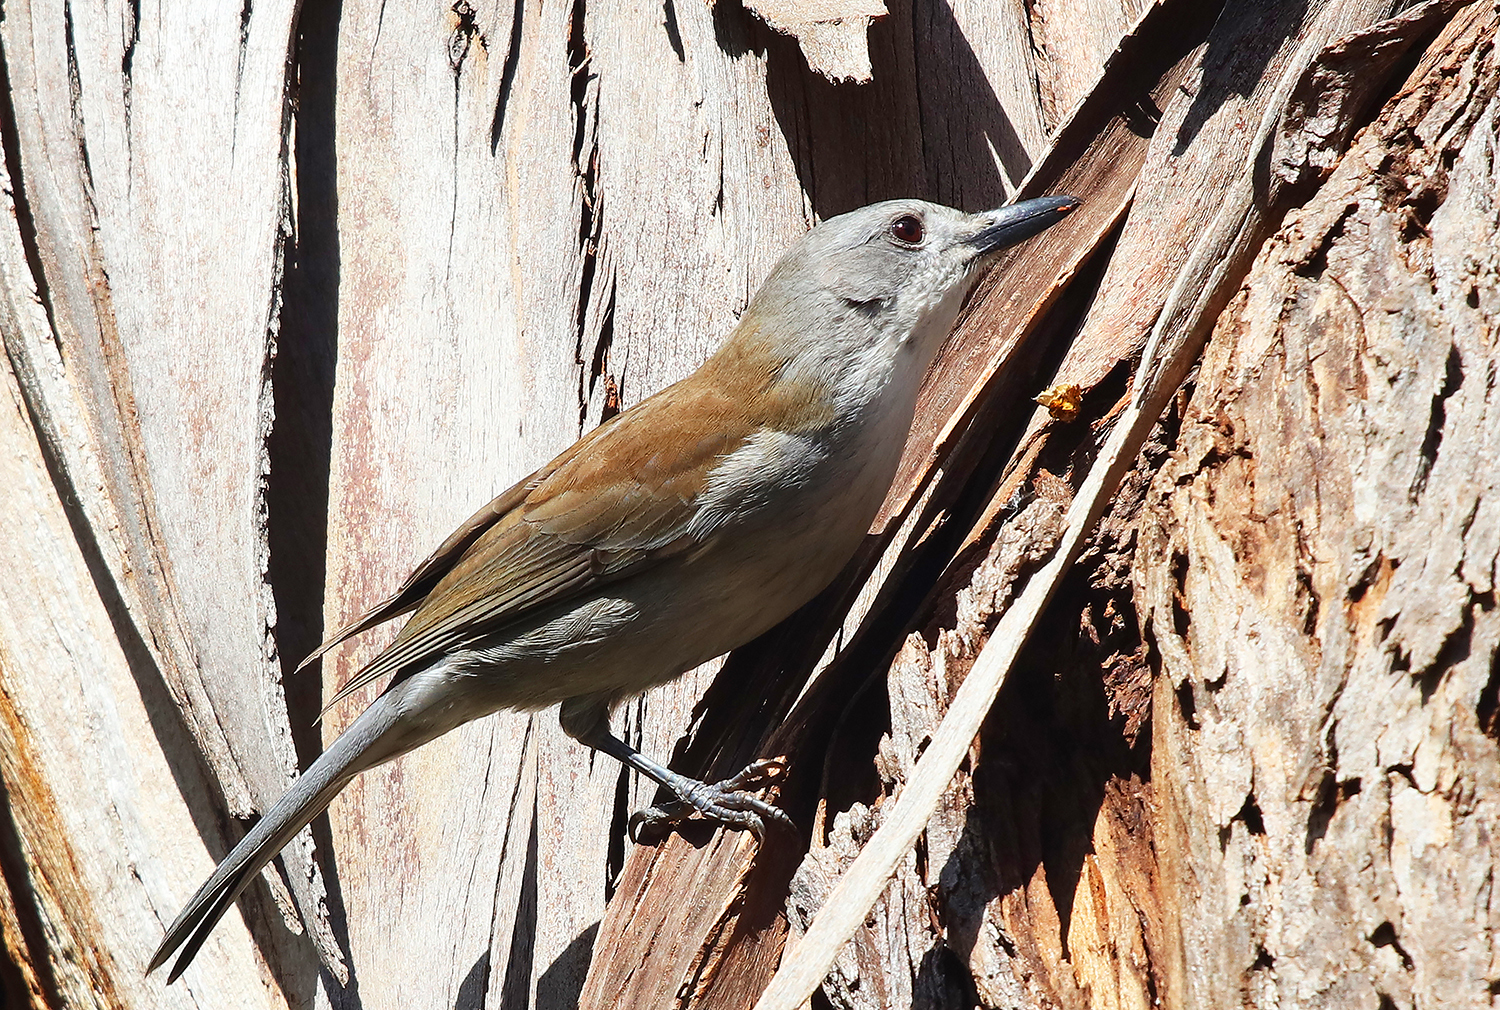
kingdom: Animalia
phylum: Chordata
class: Aves
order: Passeriformes
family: Pachycephalidae
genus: Colluricincla
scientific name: Colluricincla harmonica
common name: Grey shrikethrush
